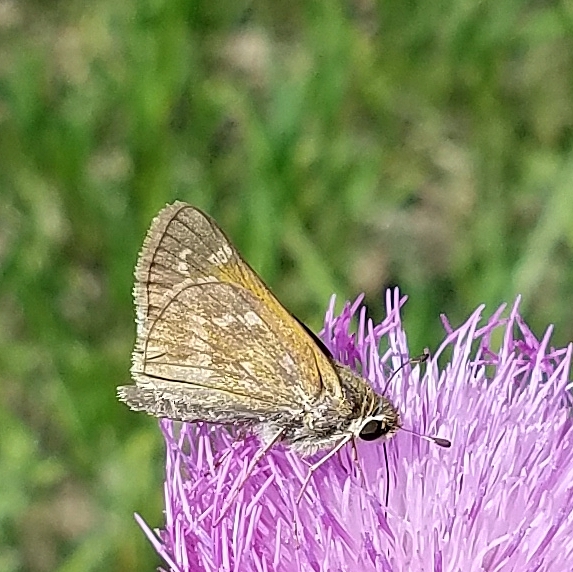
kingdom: Animalia
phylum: Arthropoda
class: Insecta
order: Lepidoptera
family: Hesperiidae
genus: Atalopedes
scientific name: Atalopedes
